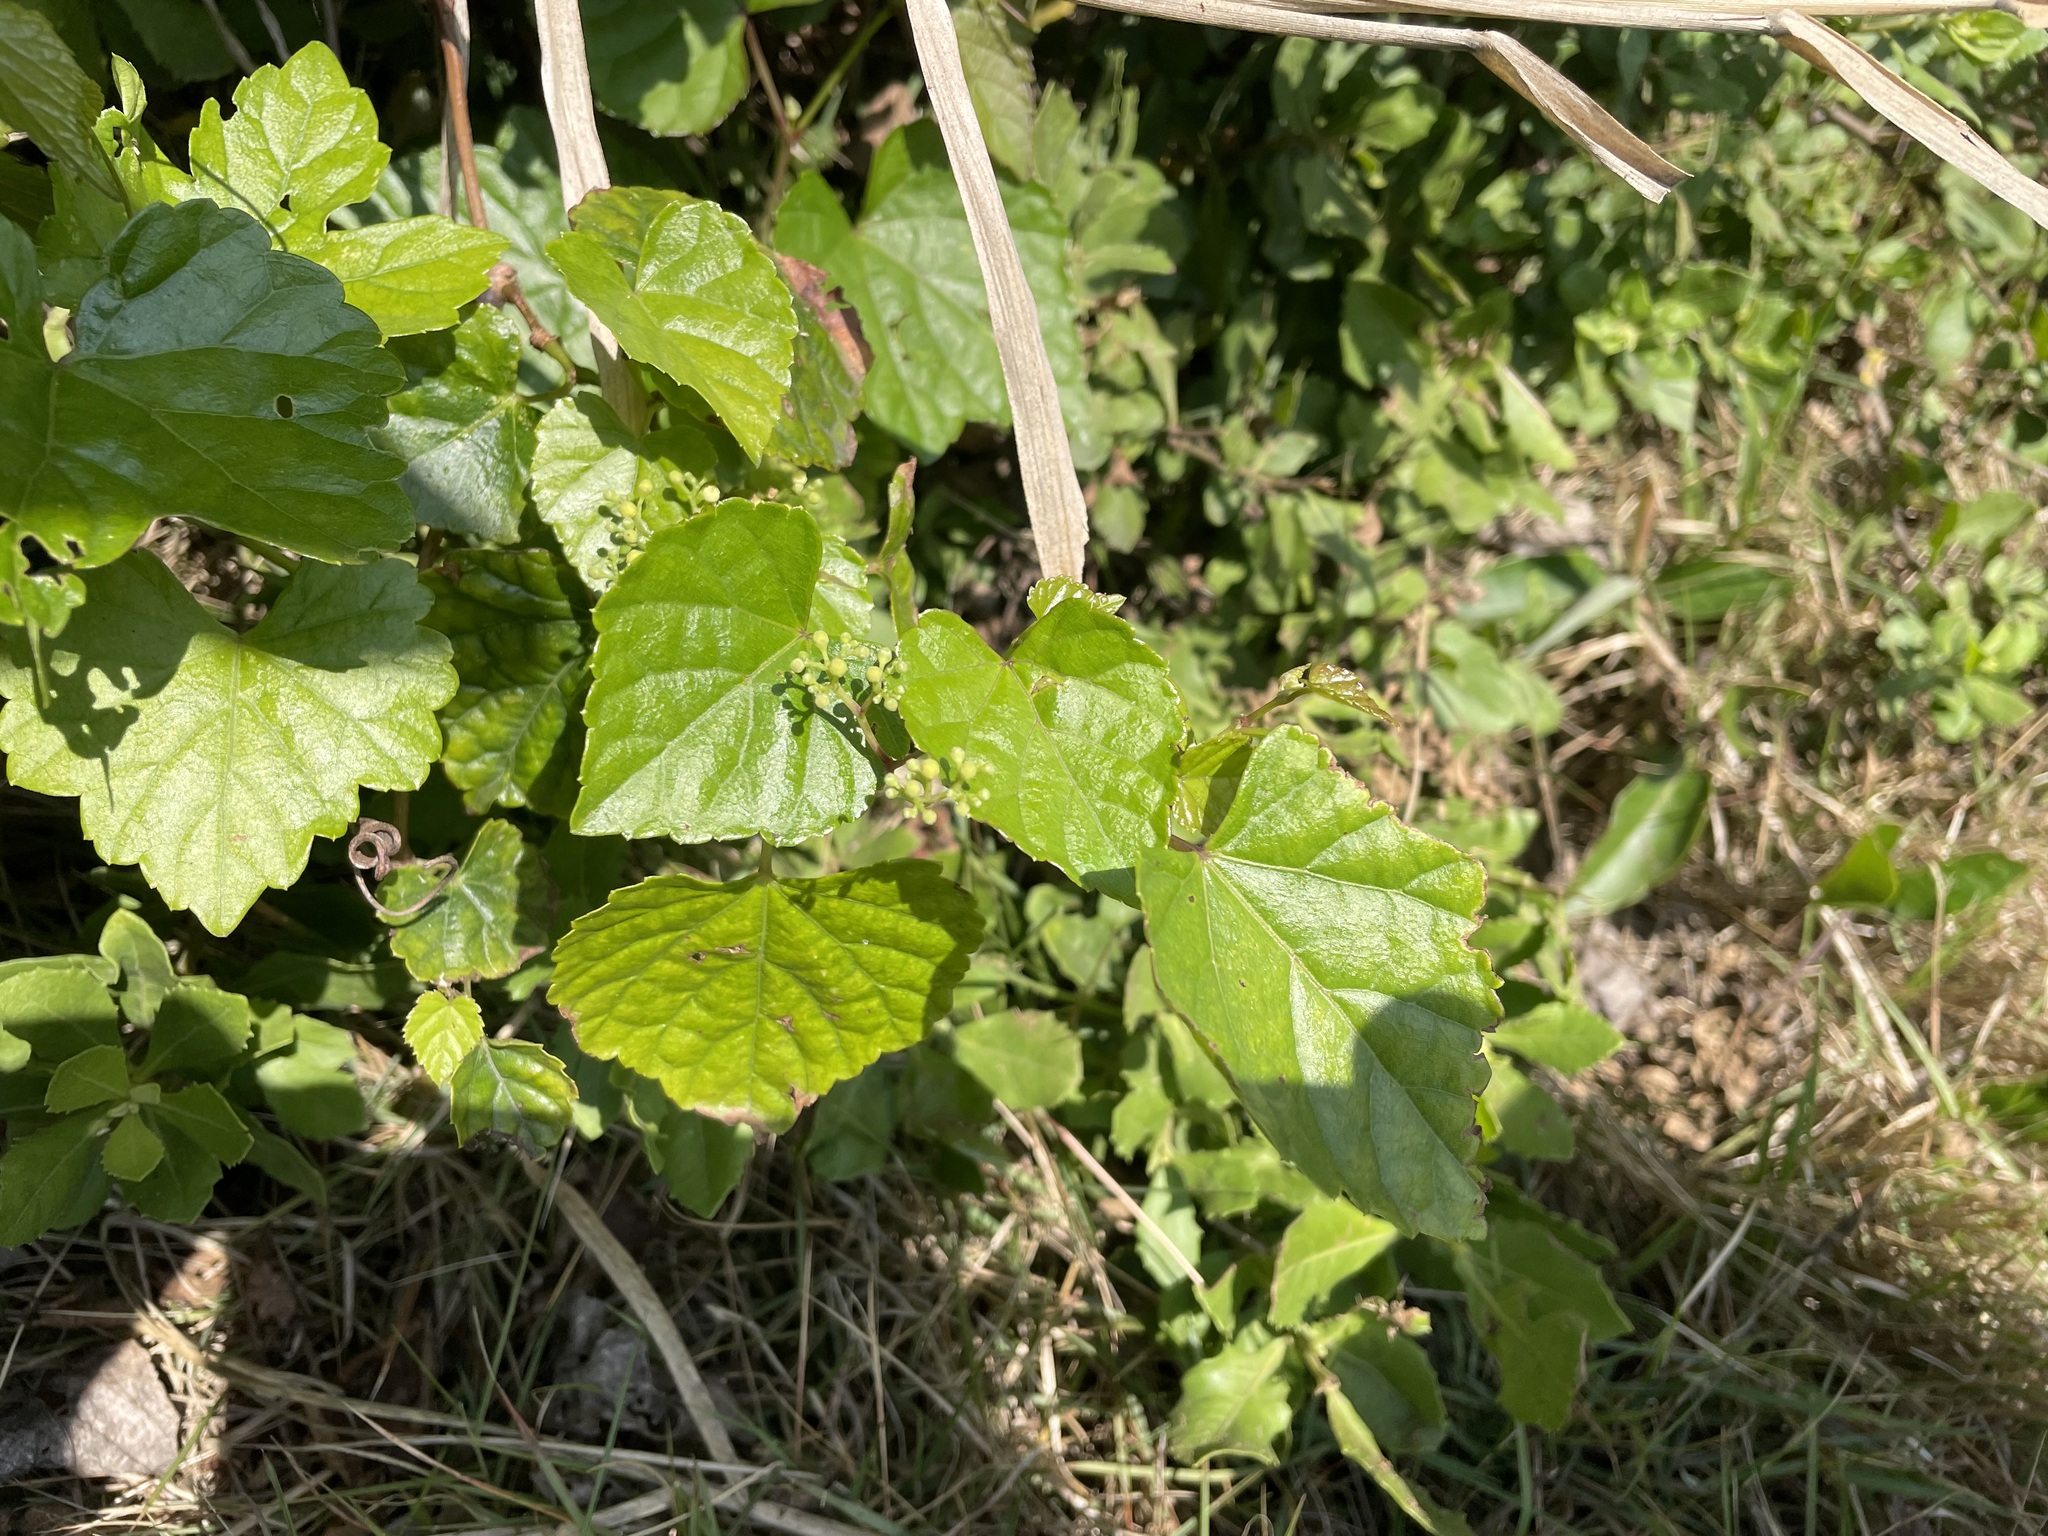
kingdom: Plantae
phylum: Tracheophyta
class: Magnoliopsida
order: Vitales
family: Vitaceae
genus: Ampelopsis
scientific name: Ampelopsis glandulosa
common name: Amur peppervine
